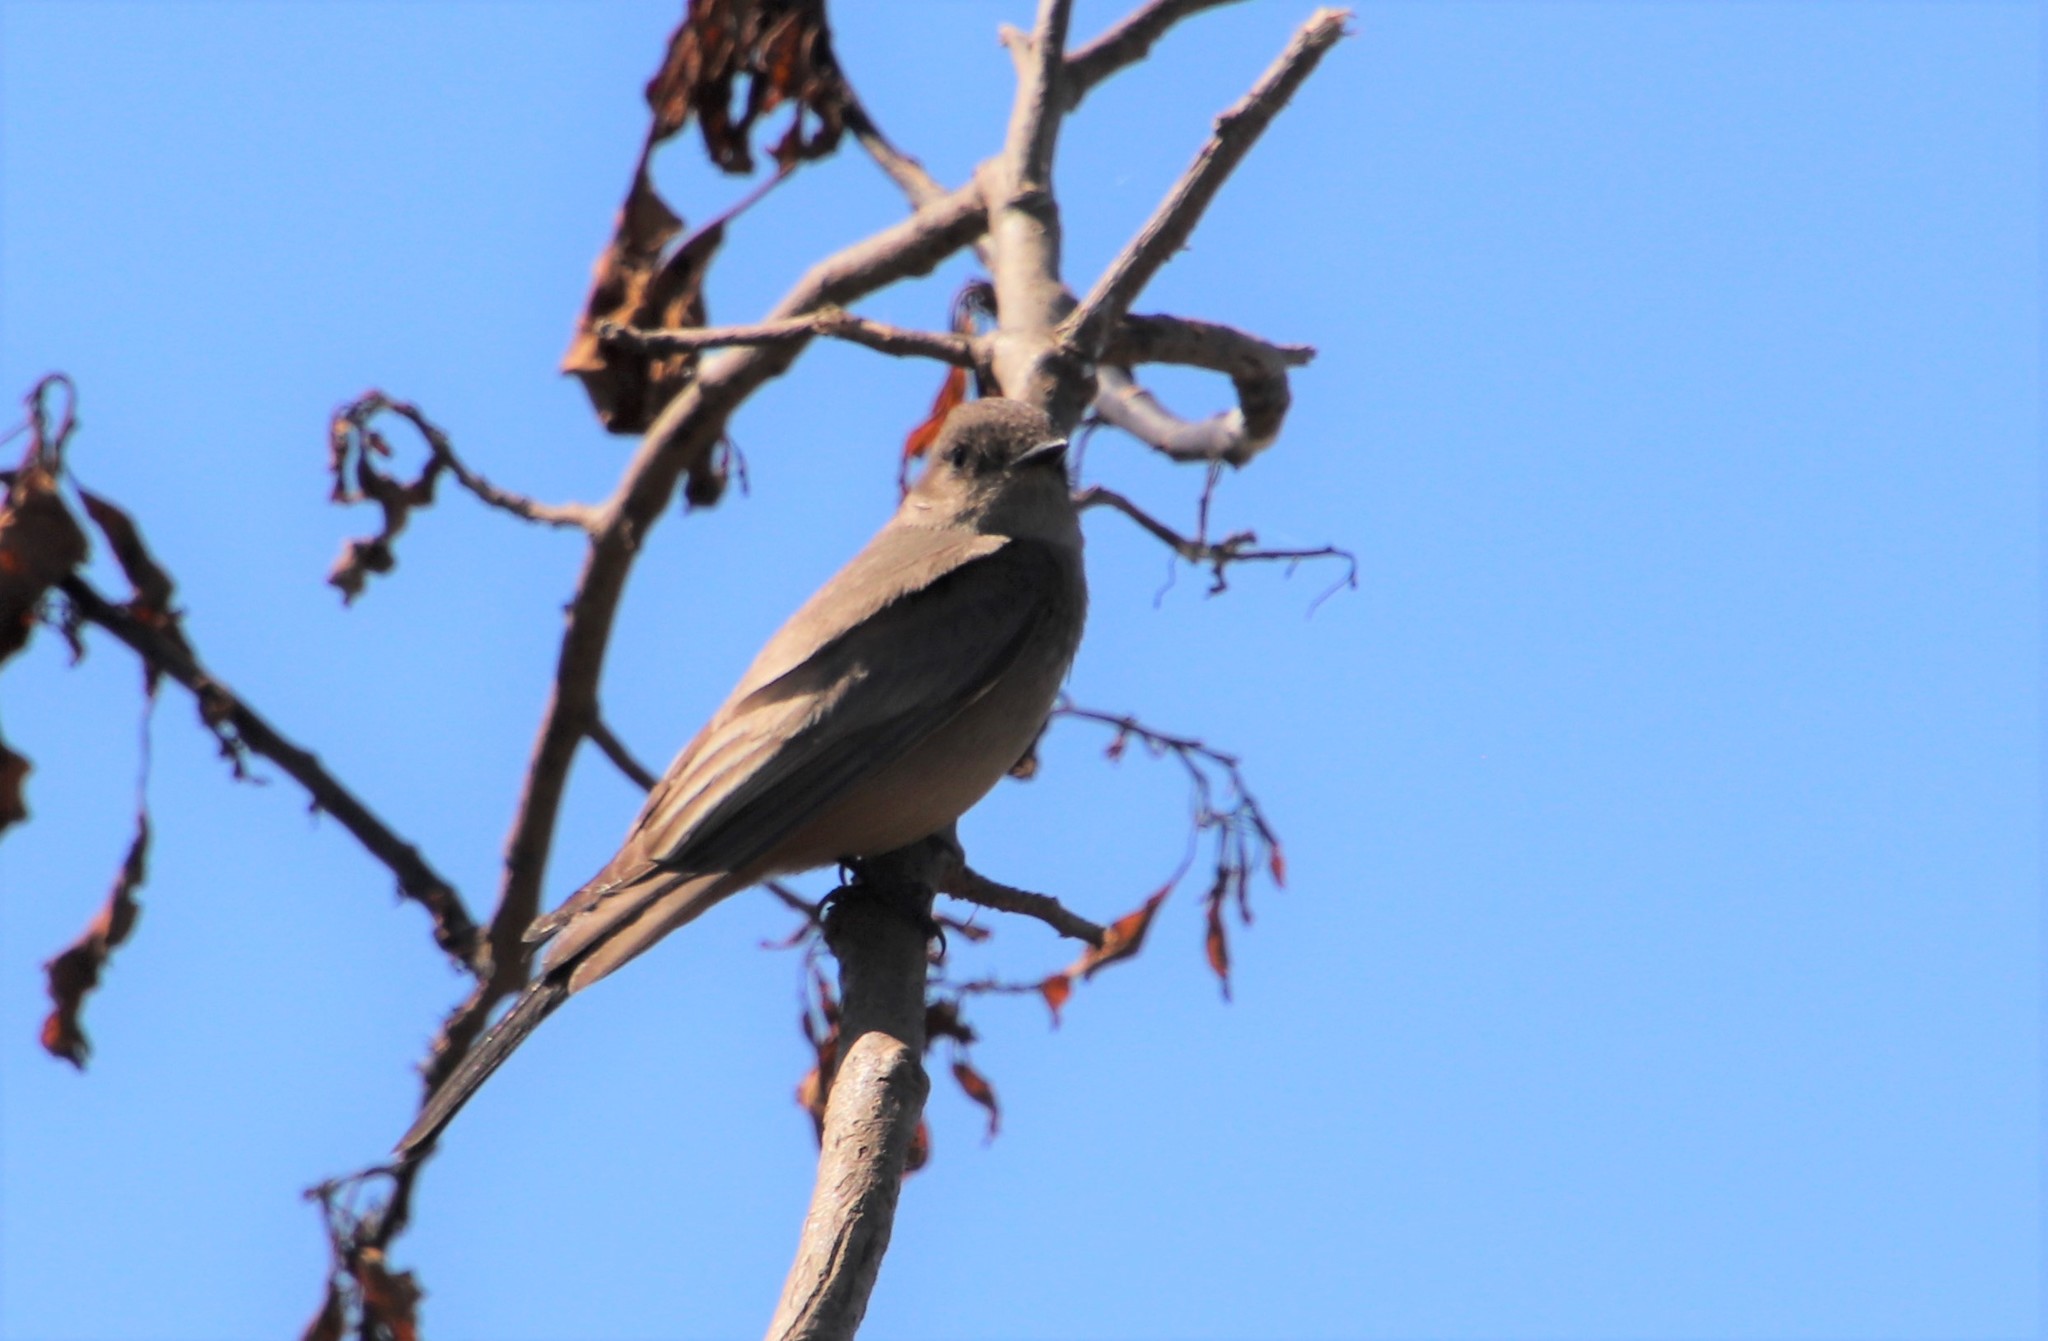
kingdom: Animalia
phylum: Chordata
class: Aves
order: Passeriformes
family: Tyrannidae
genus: Sayornis
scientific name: Sayornis saya
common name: Say's phoebe
